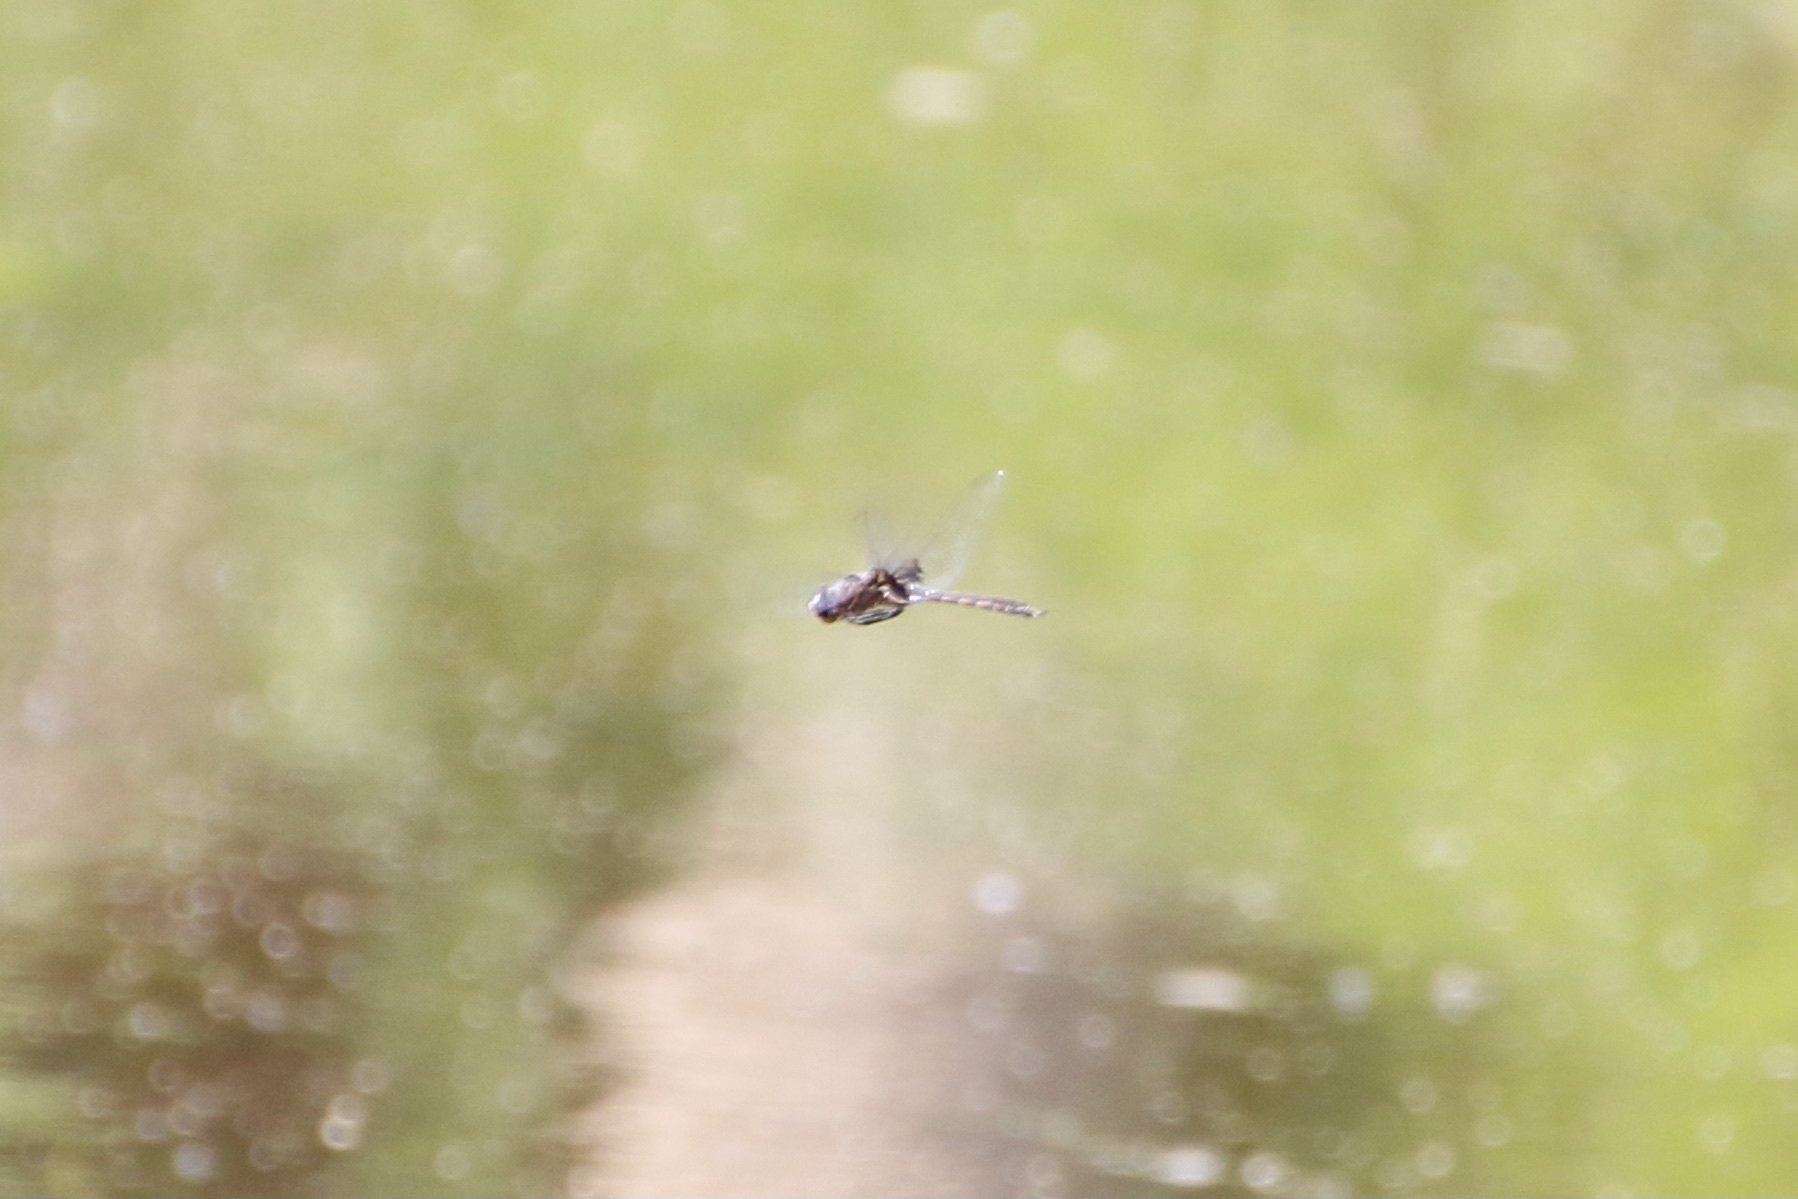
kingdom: Animalia
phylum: Arthropoda
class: Insecta
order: Odonata
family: Corduliidae
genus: Epitheca
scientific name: Epitheca cynosura
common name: Common baskettail
